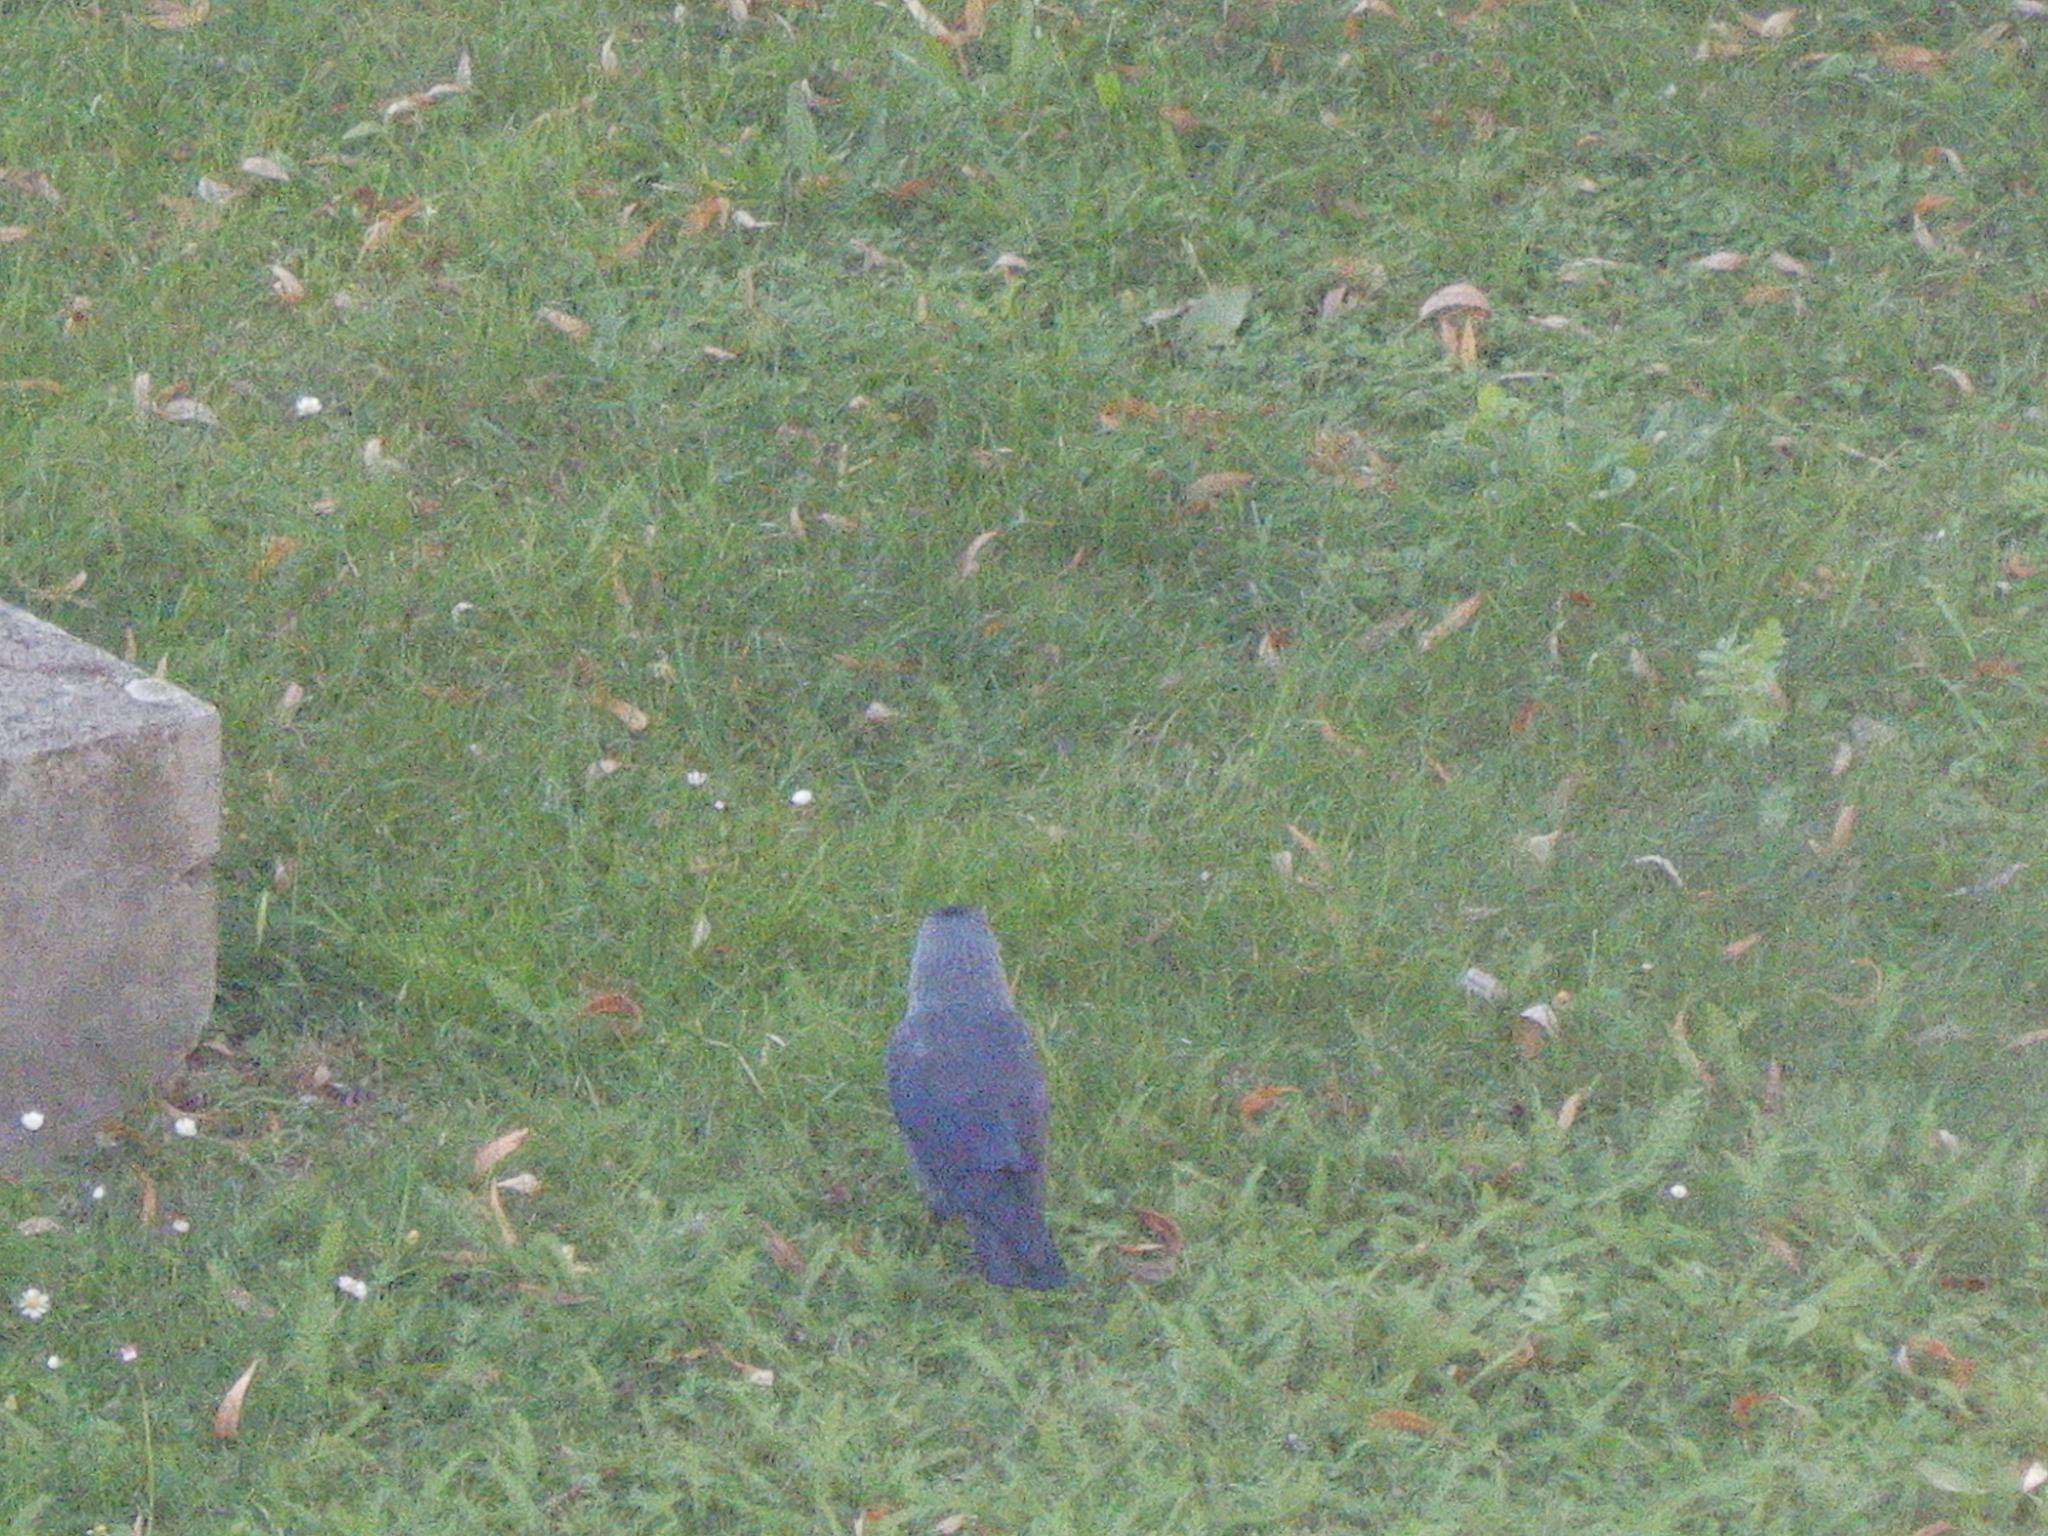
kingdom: Animalia
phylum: Chordata
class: Aves
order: Passeriformes
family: Corvidae
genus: Coloeus
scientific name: Coloeus monedula
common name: Western jackdaw
